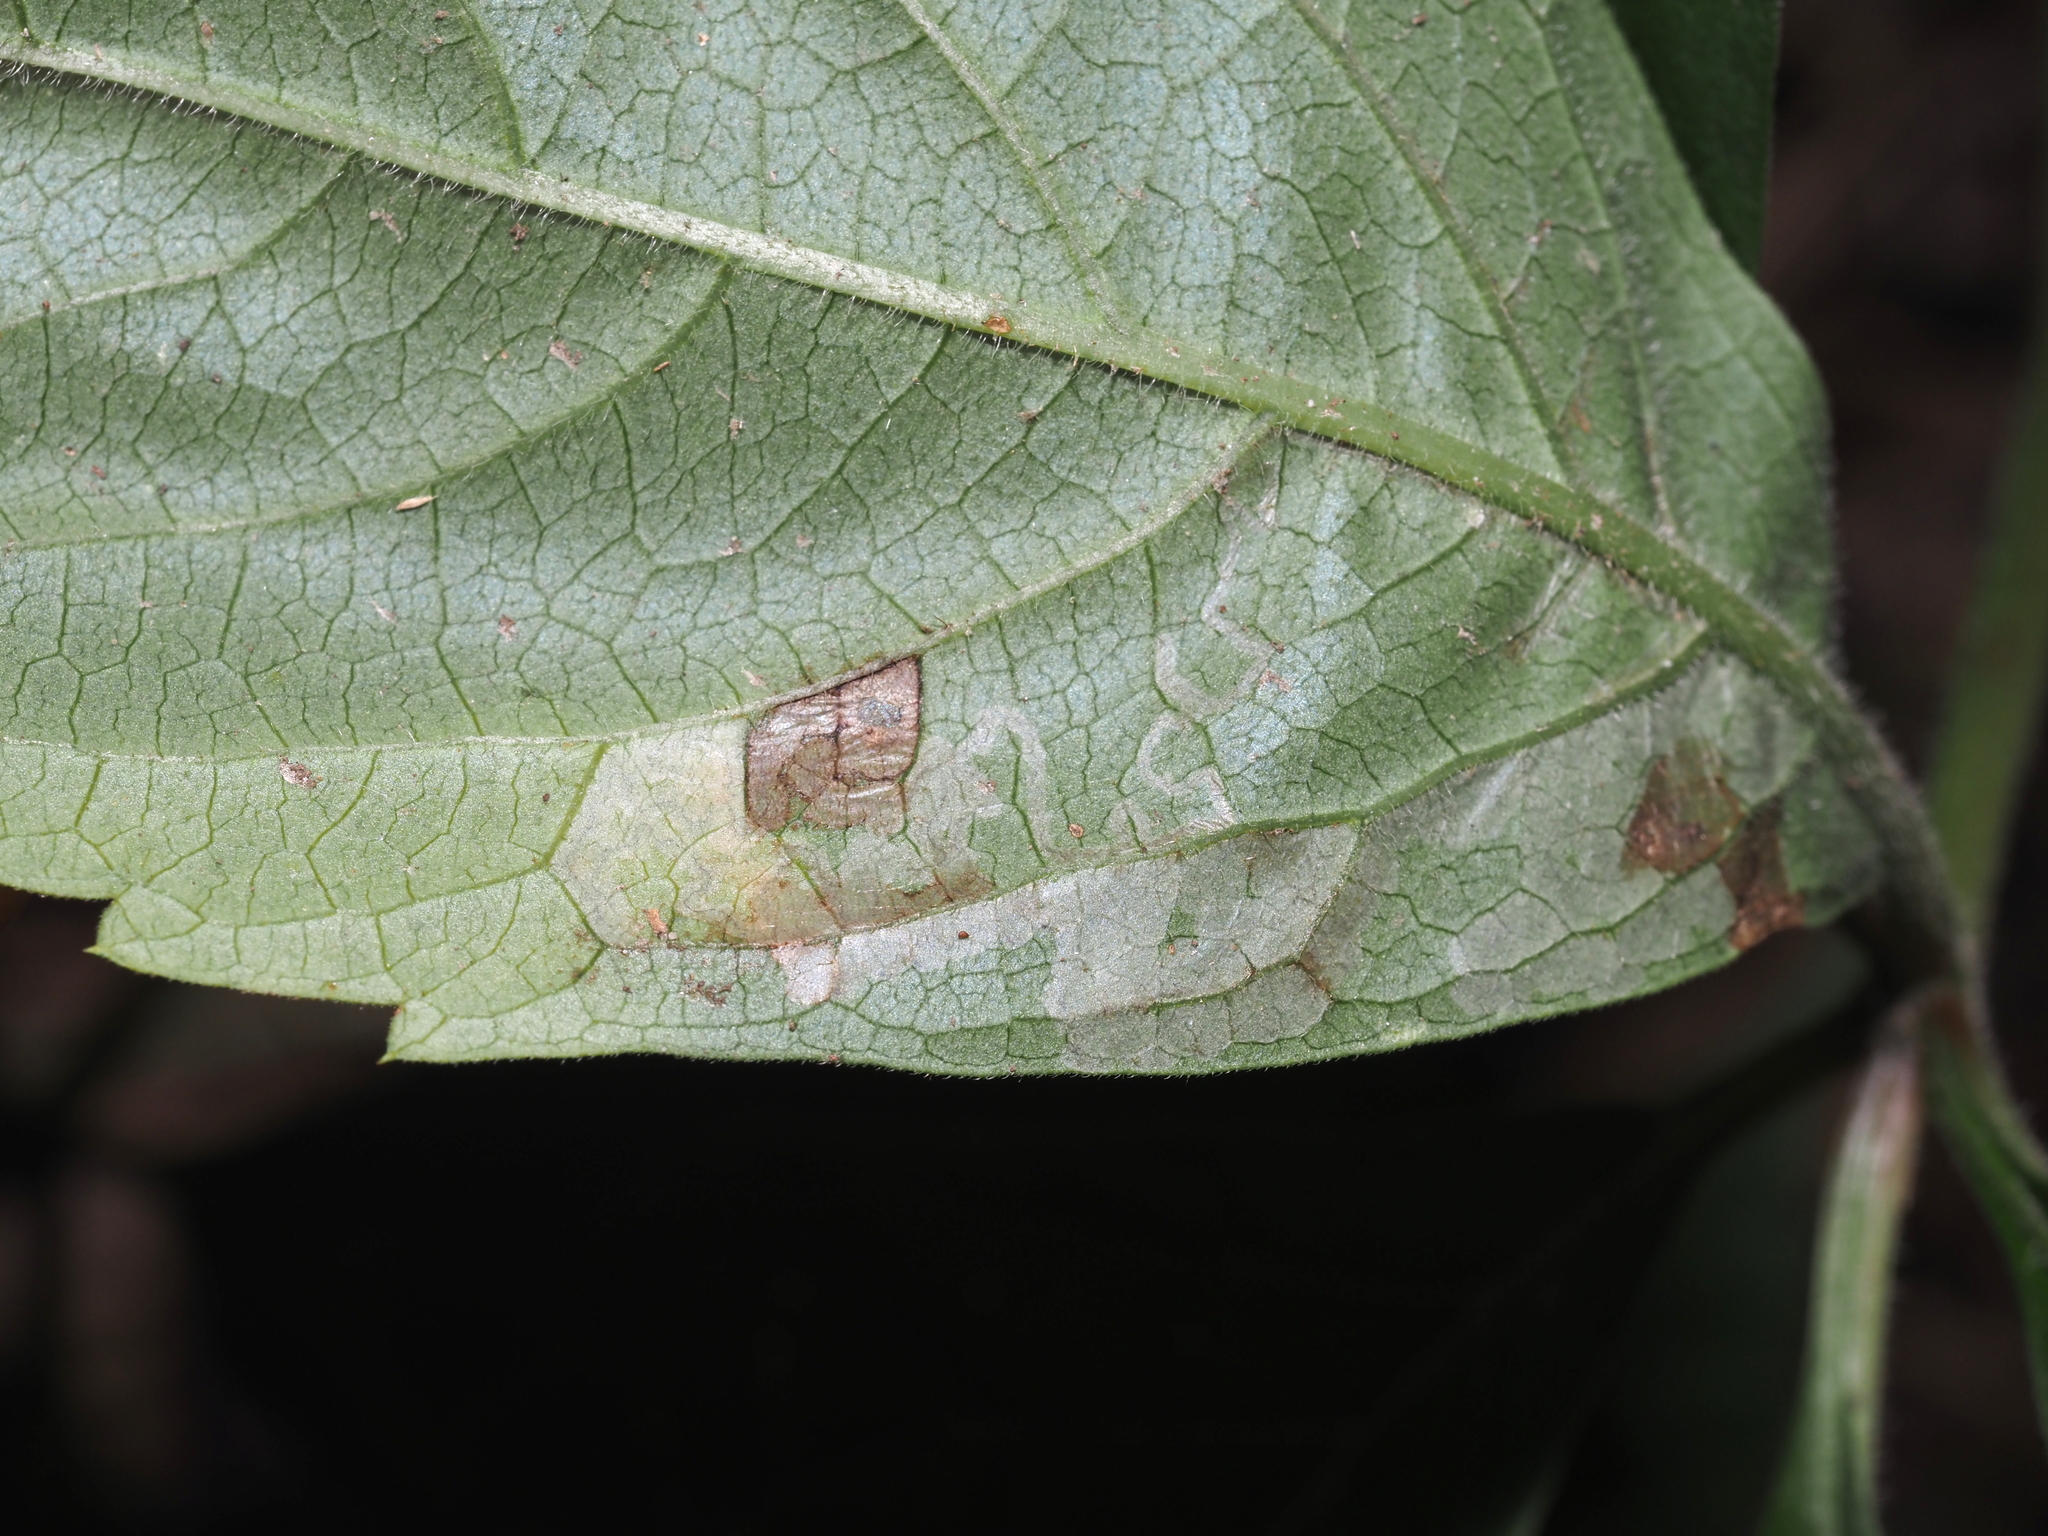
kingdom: Animalia
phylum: Arthropoda
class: Insecta
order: Lepidoptera
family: Gracillariidae
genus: Phyllocnistis
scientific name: Phyllocnistis ampelopsiella
